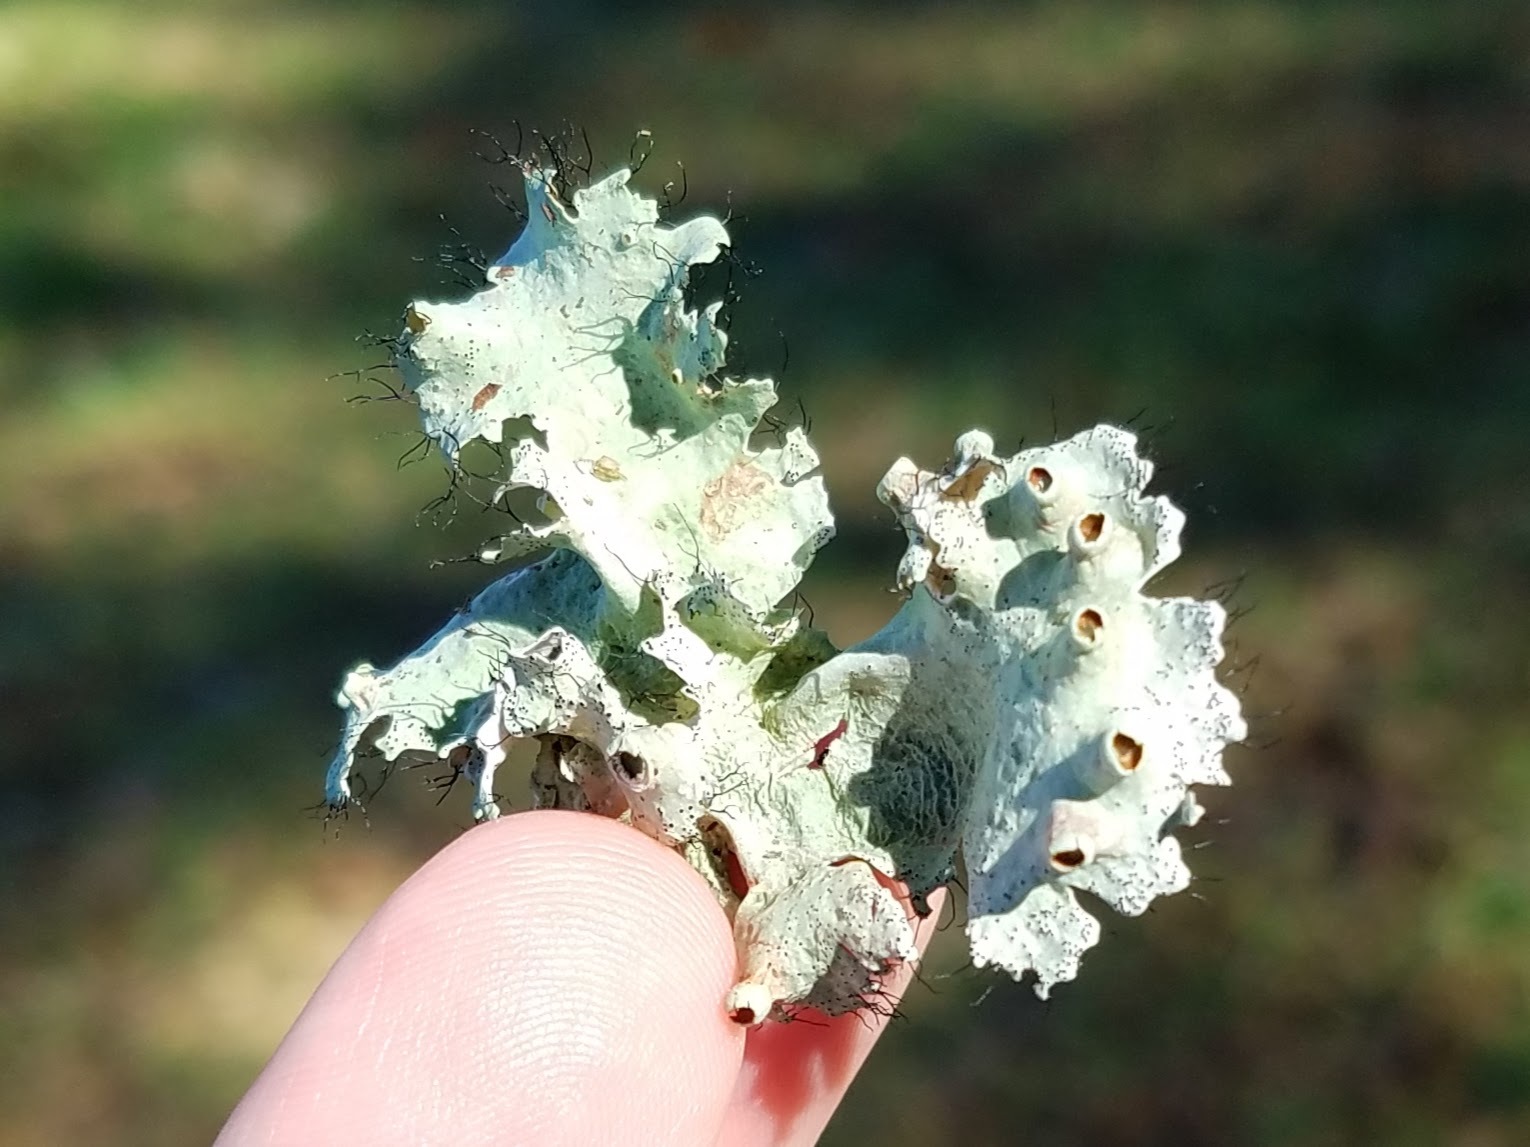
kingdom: Fungi
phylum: Ascomycota
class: Lecanoromycetes
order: Lecanorales
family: Parmeliaceae
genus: Parmotrema
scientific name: Parmotrema perforatum
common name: Perforated ruffle lichen
